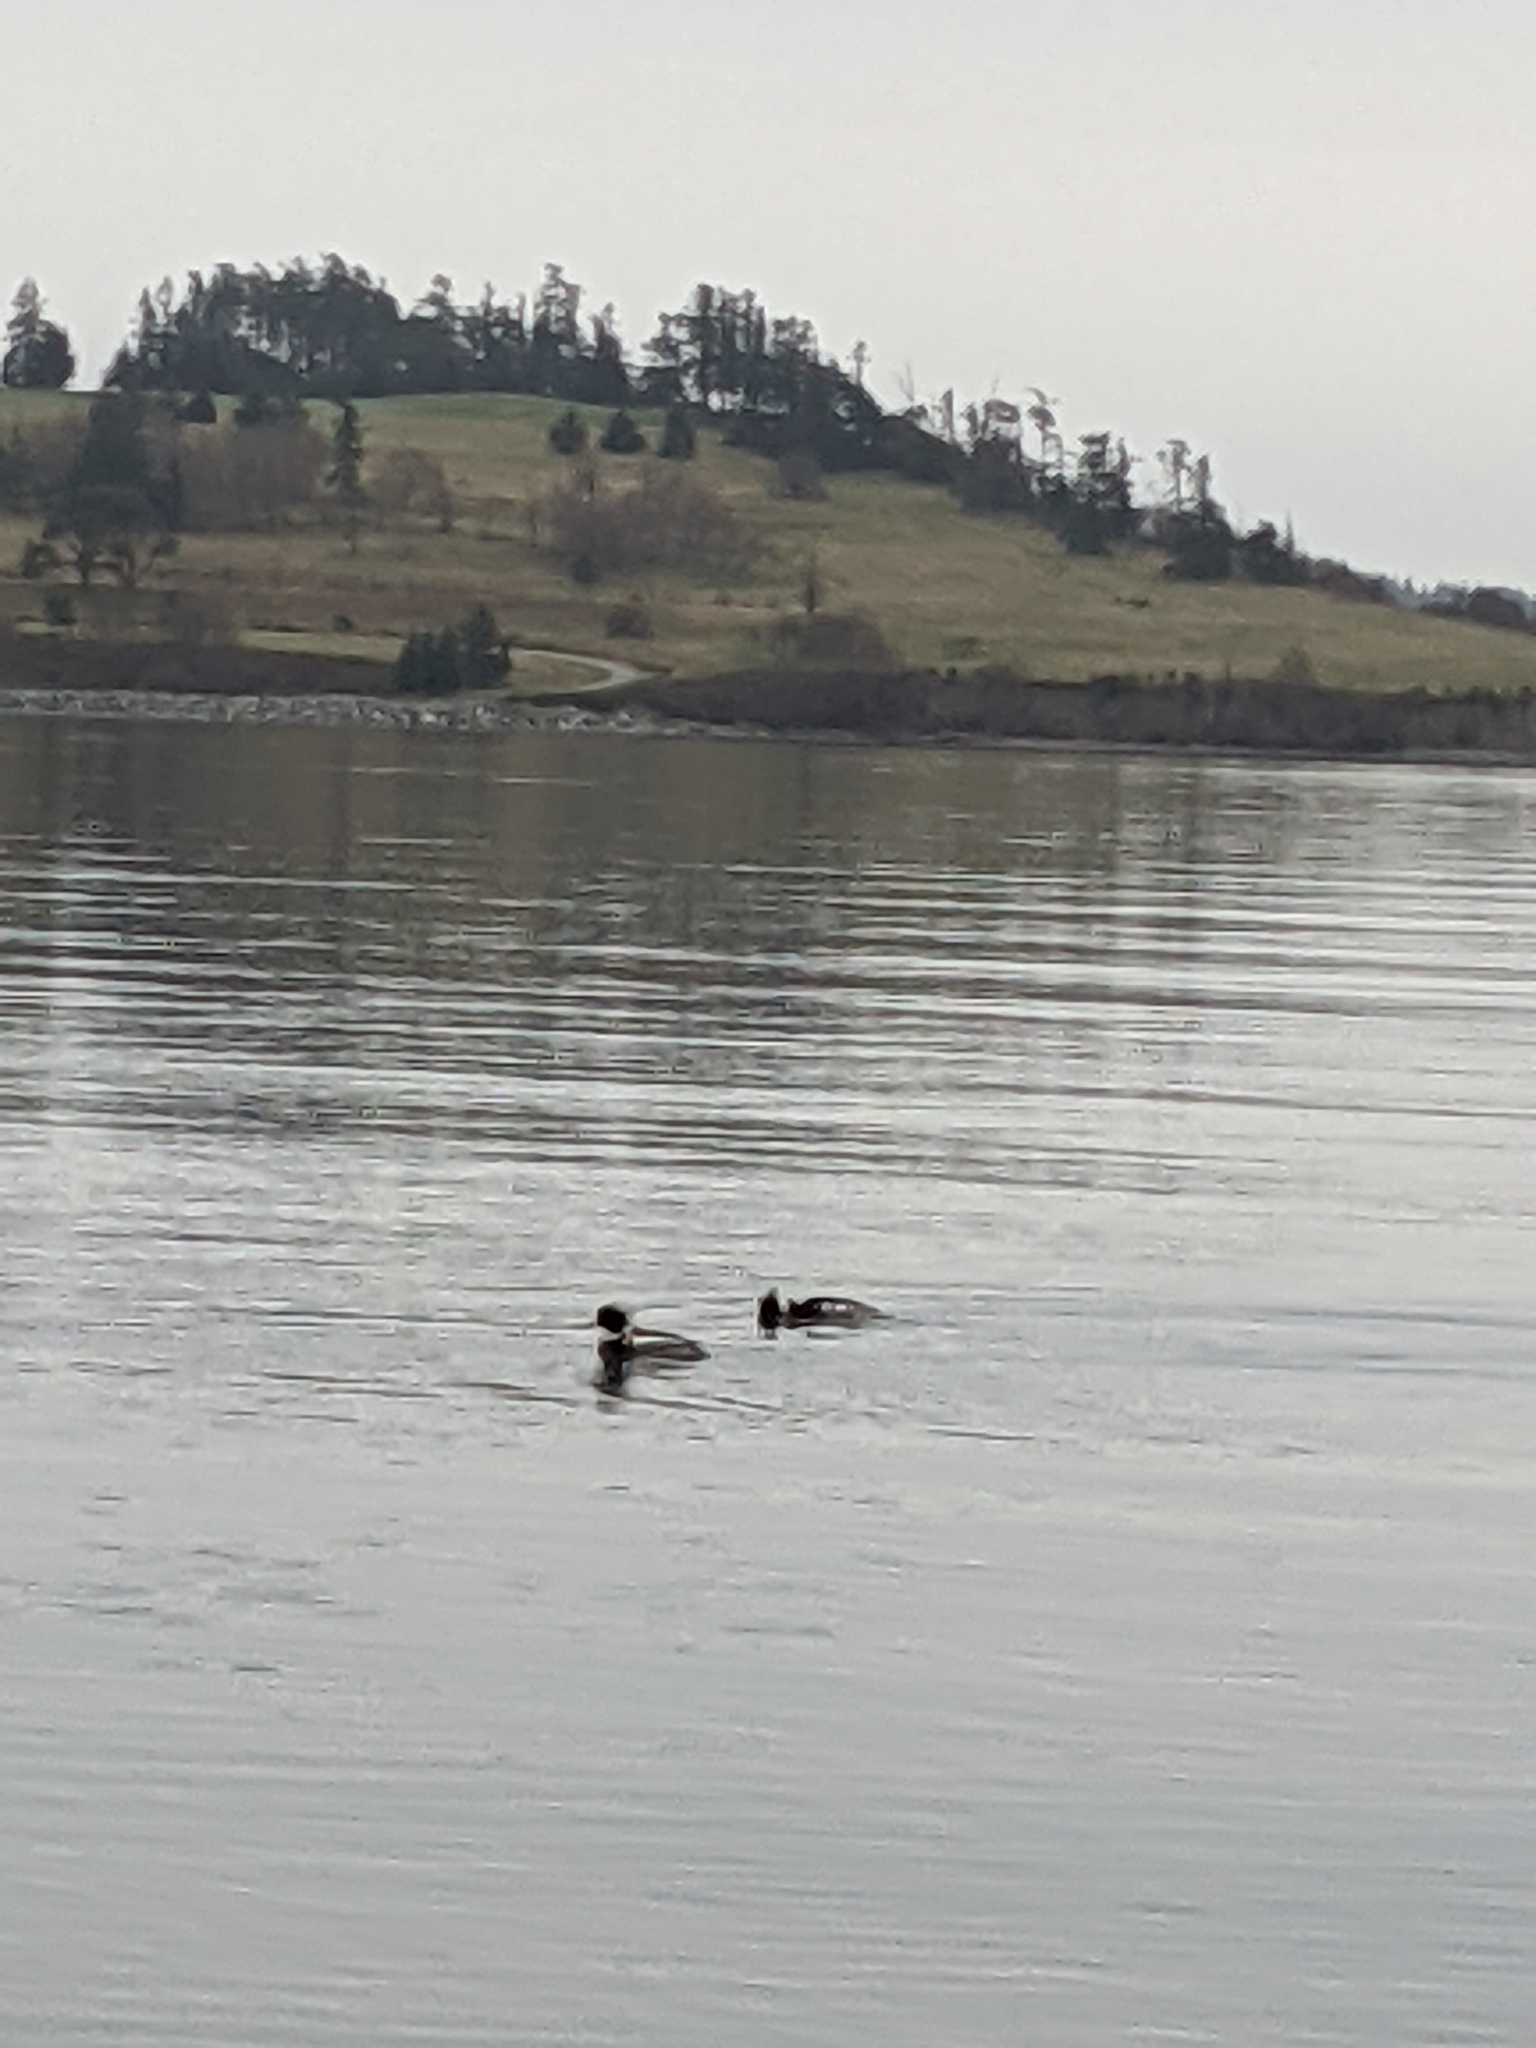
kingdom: Animalia
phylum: Chordata
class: Aves
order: Anseriformes
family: Anatidae
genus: Mergus
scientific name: Mergus serrator
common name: Red-breasted merganser
